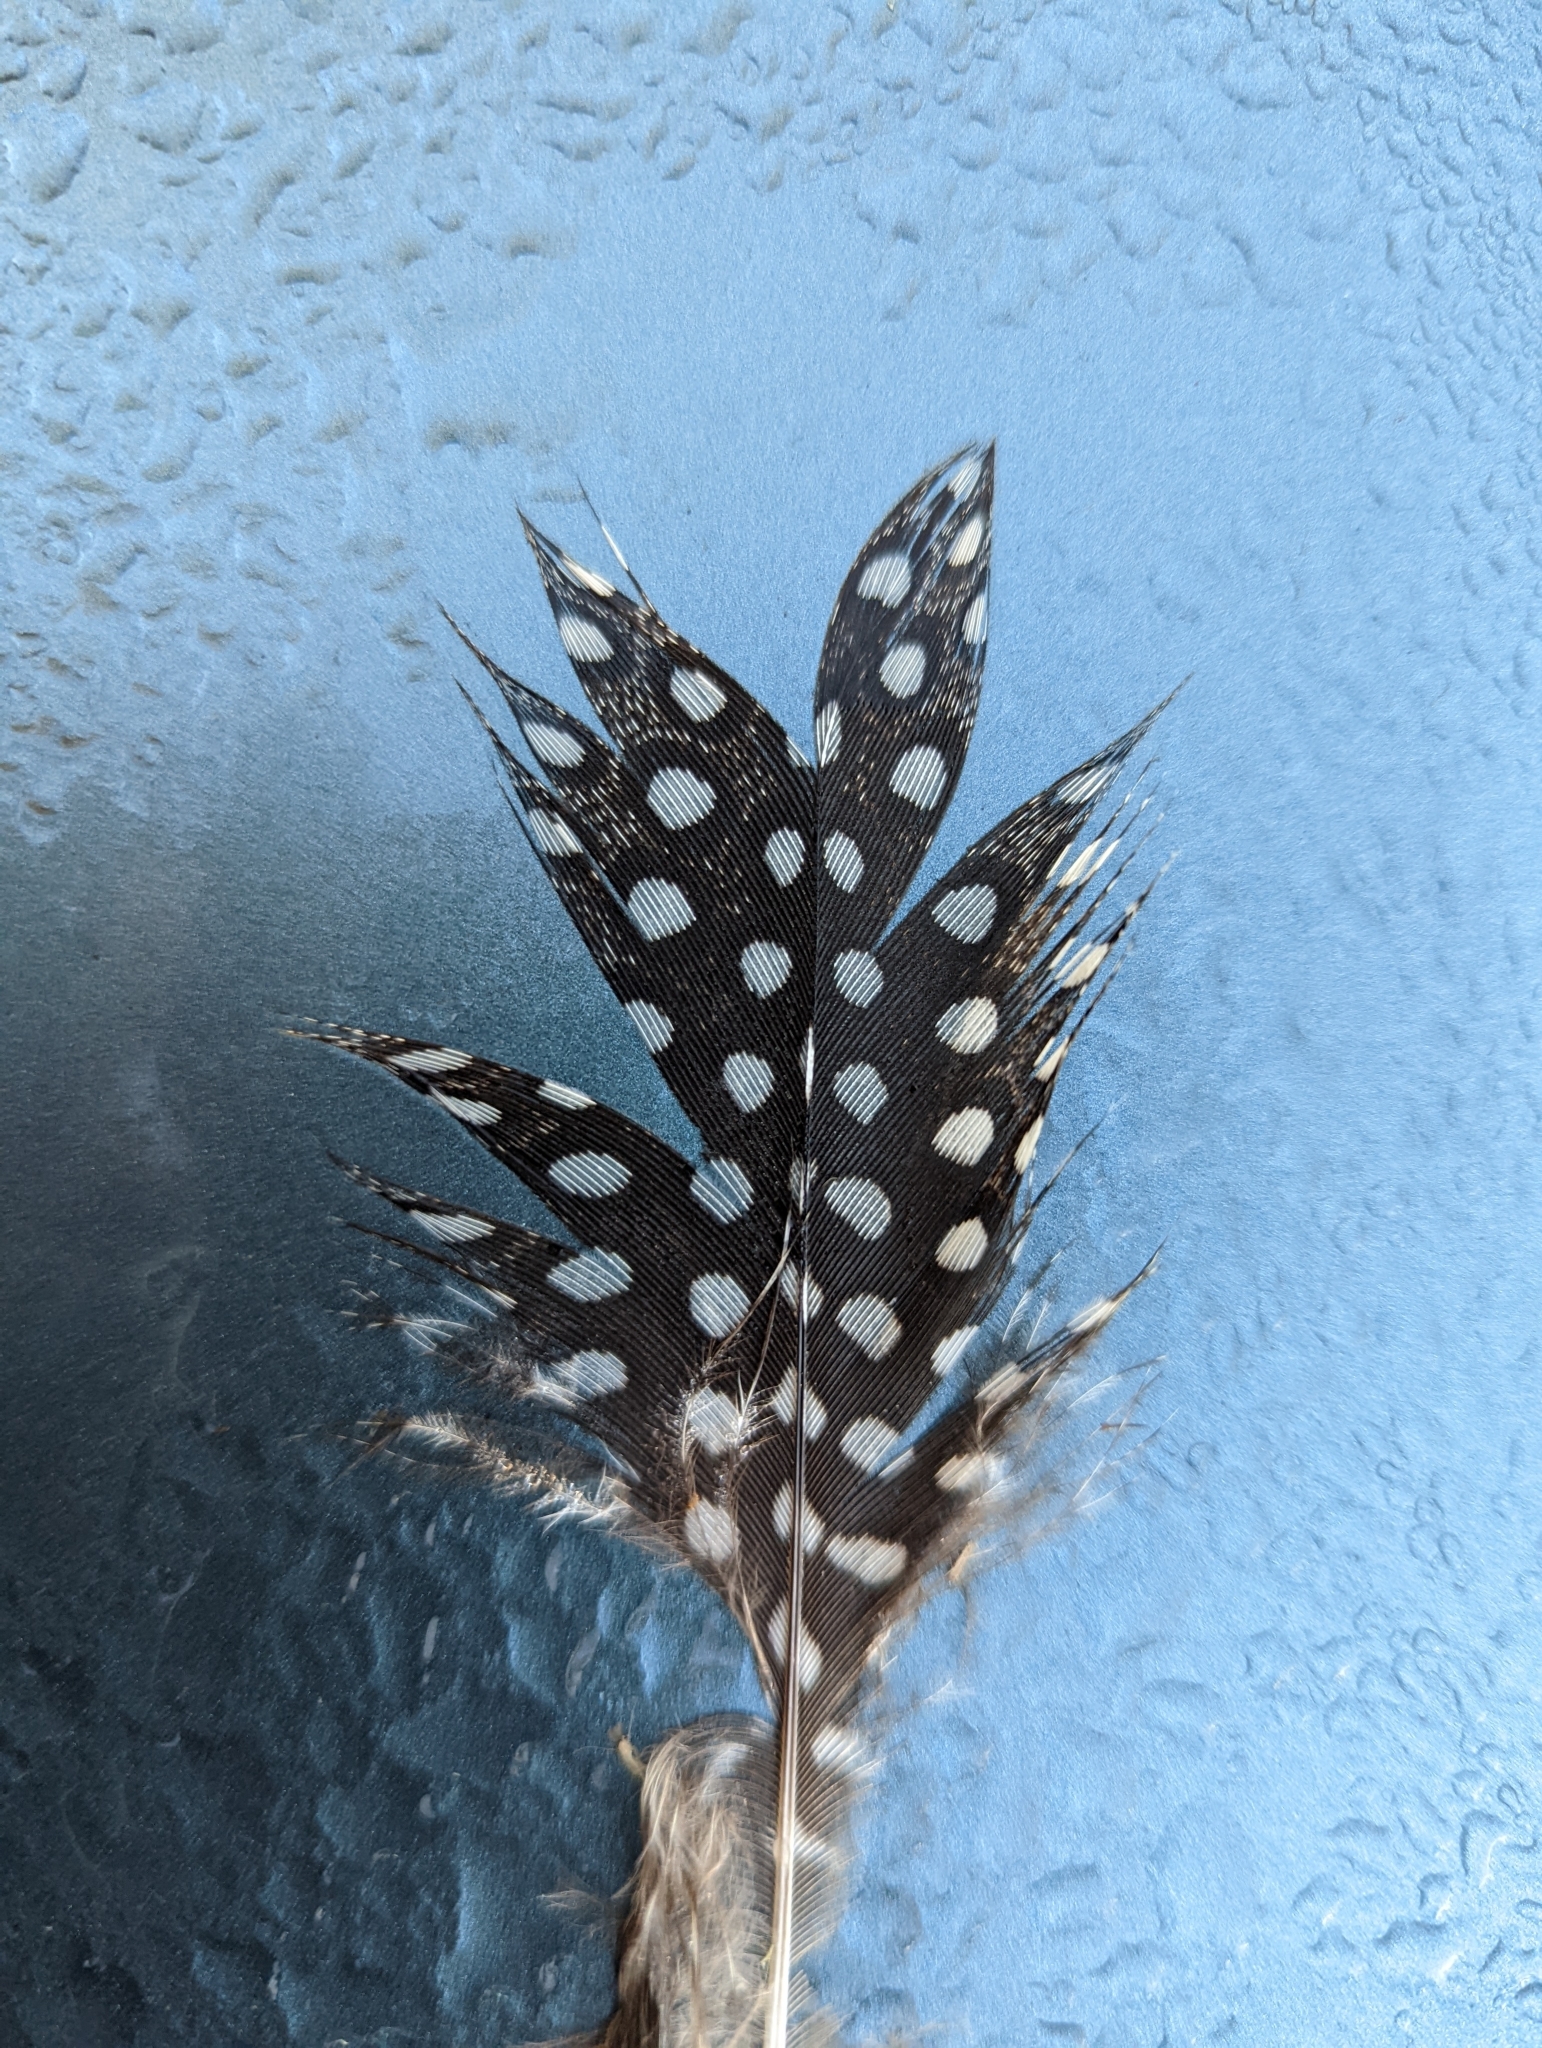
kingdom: Animalia
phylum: Chordata
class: Aves
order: Galliformes
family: Numididae
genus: Numida
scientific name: Numida meleagris
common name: Helmeted guineafowl
